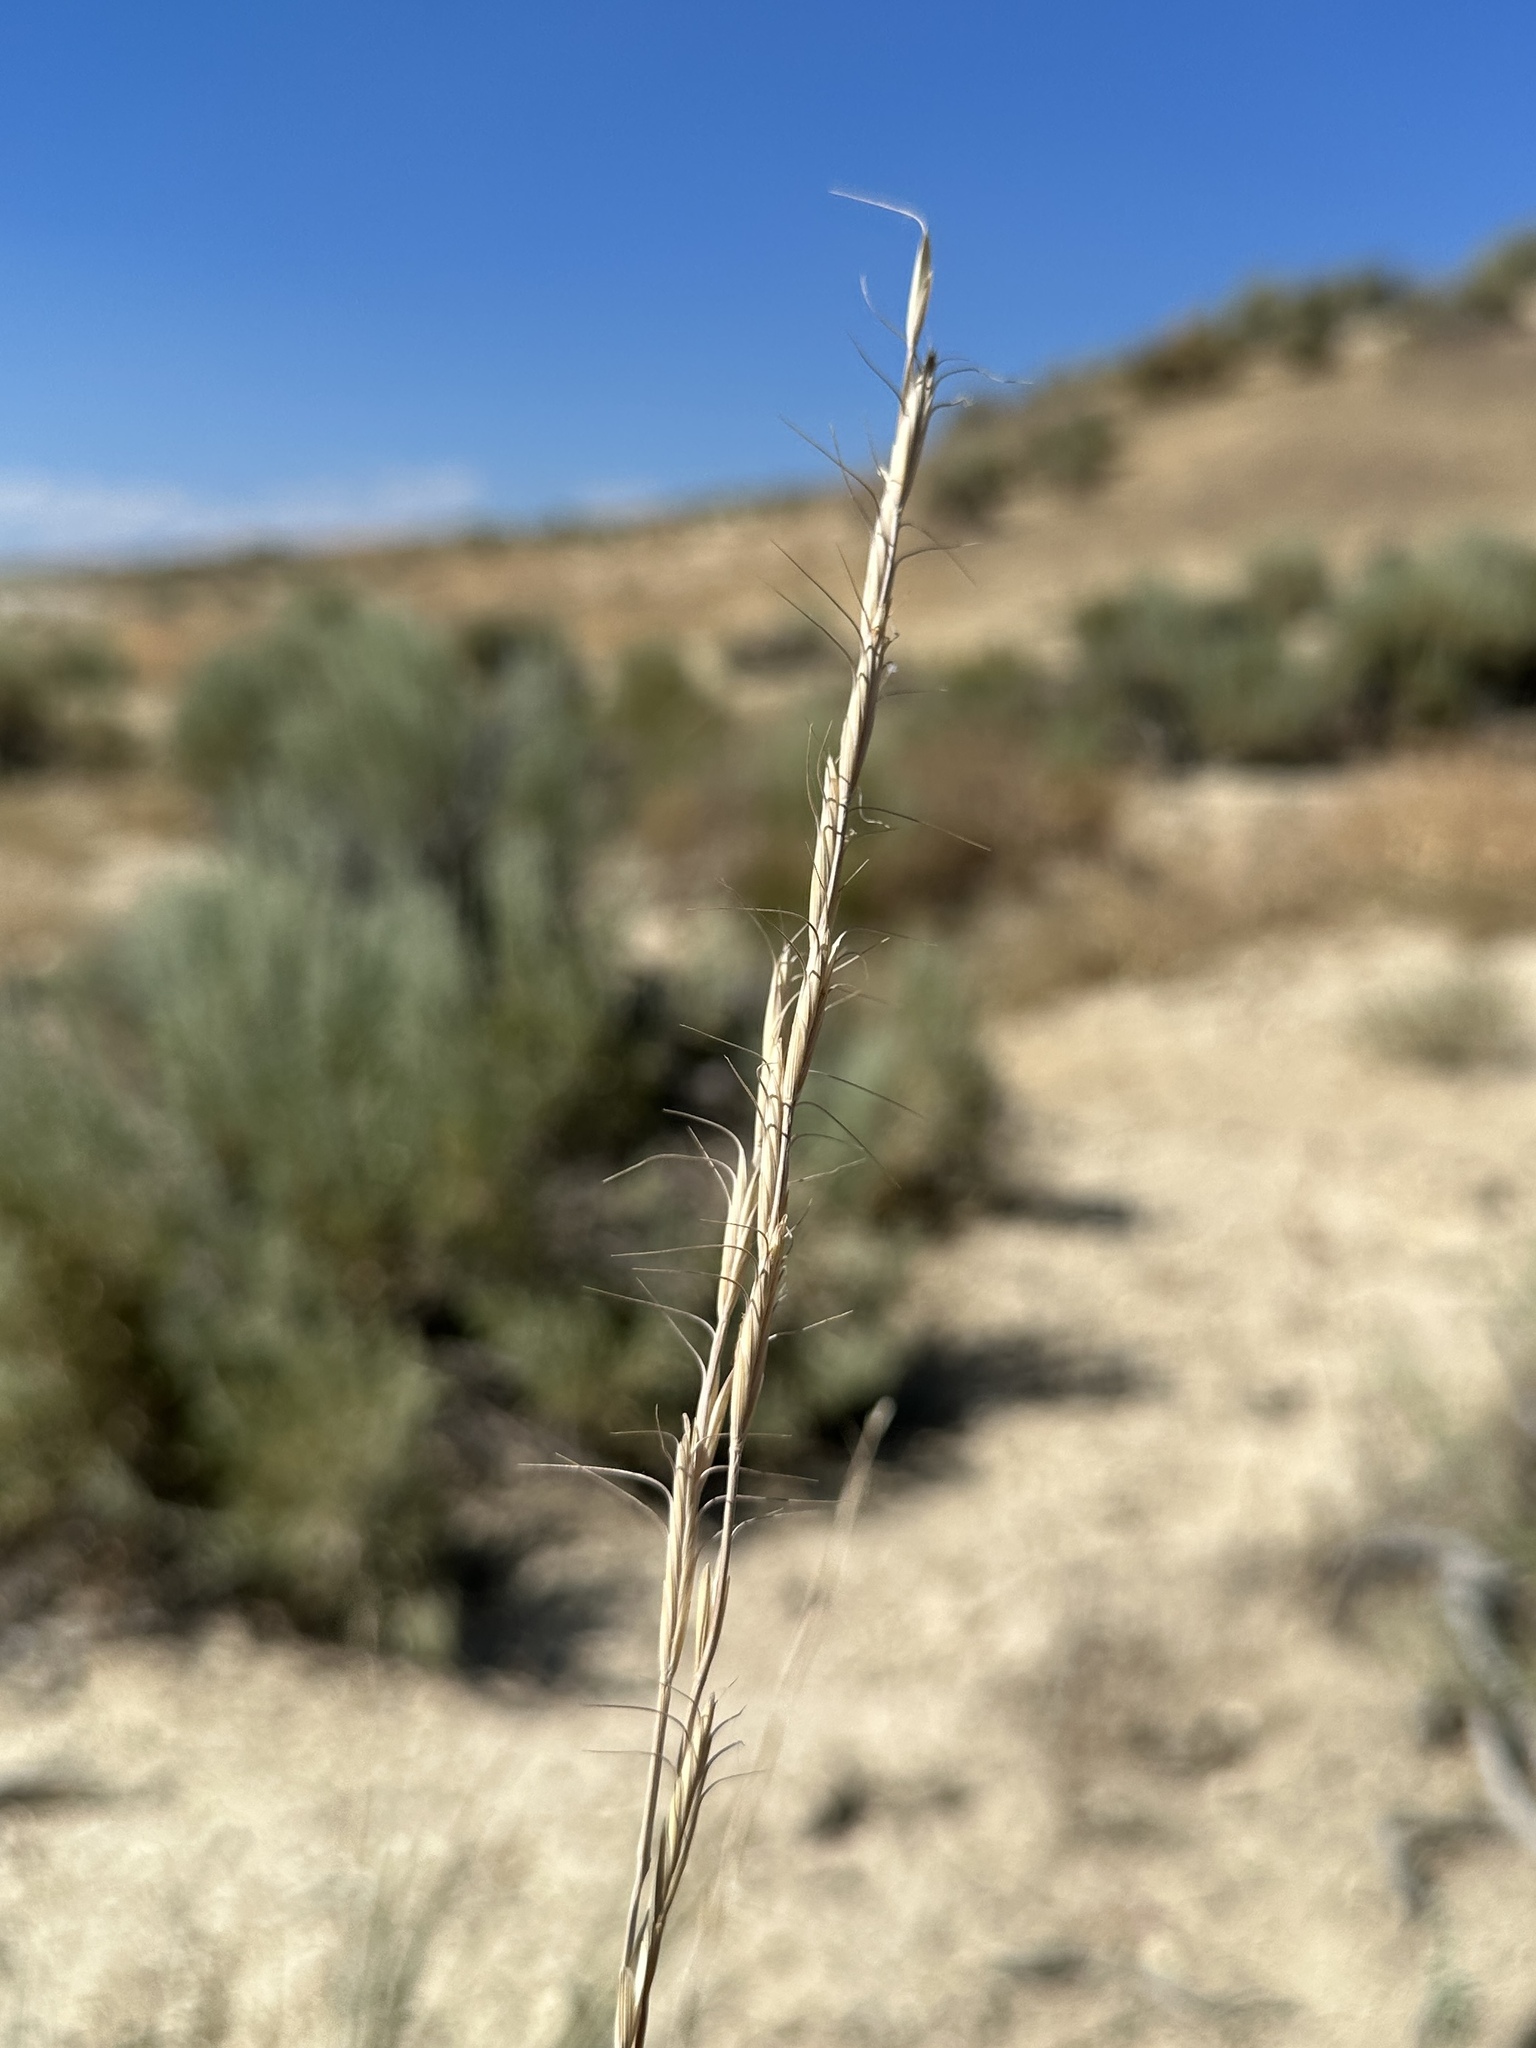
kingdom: Plantae
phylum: Tracheophyta
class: Liliopsida
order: Poales
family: Poaceae
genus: Pseudoroegneria
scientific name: Pseudoroegneria spicata
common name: Bluebunch wheatgrass
